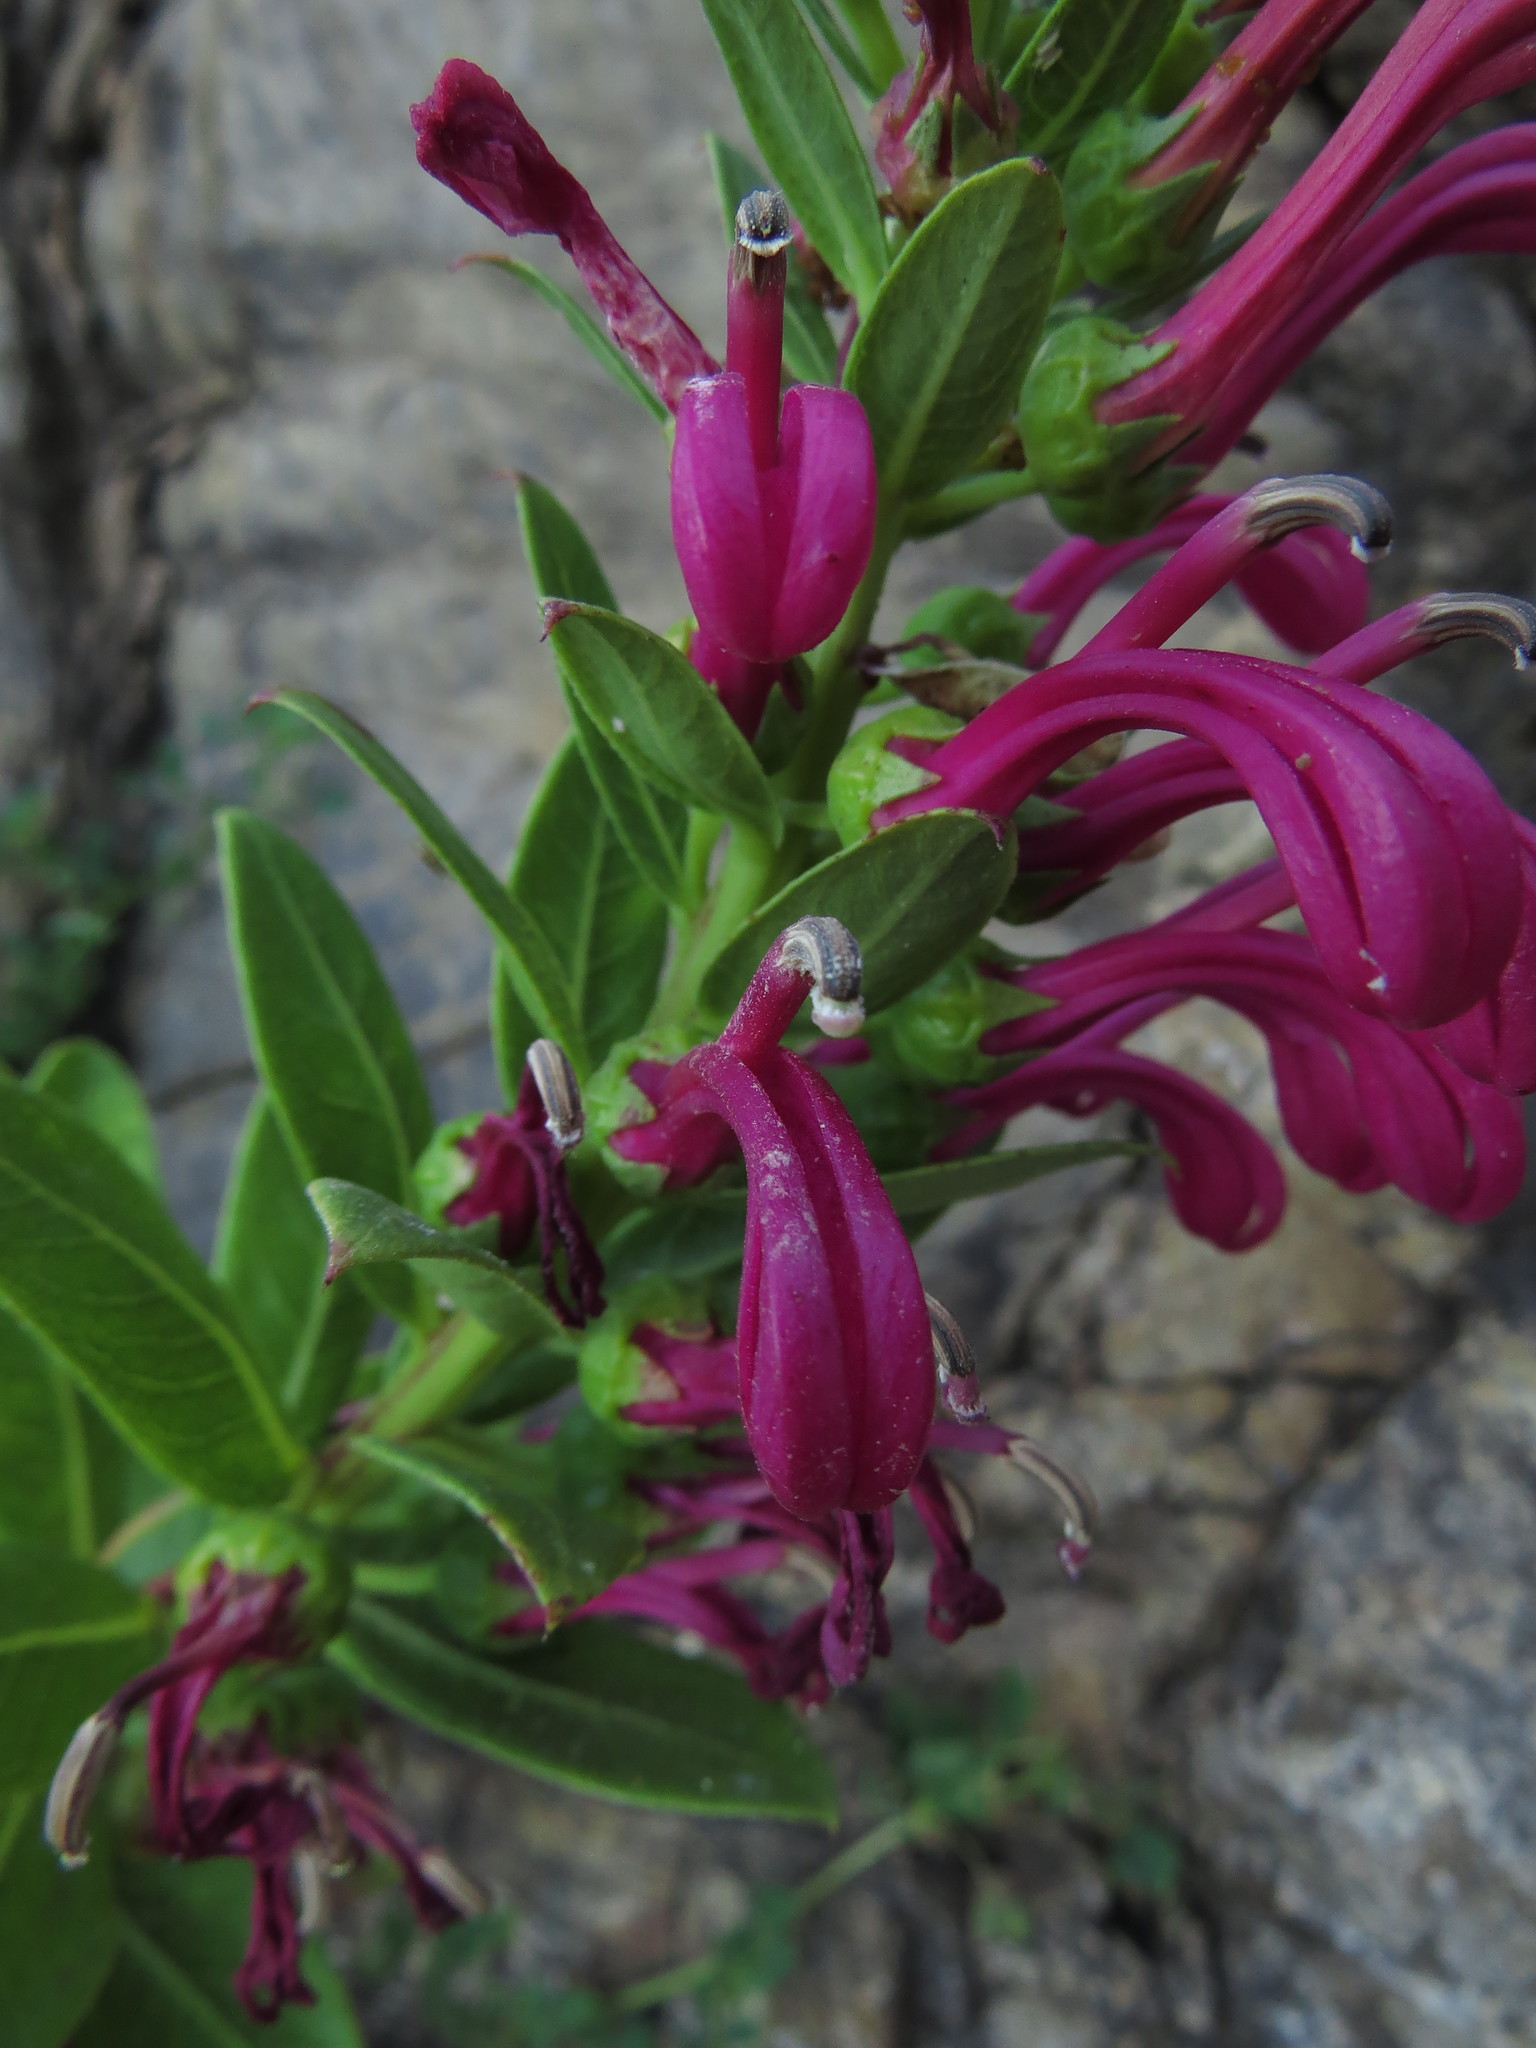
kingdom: Plantae
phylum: Tracheophyta
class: Magnoliopsida
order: Asterales
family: Campanulaceae
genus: Lobelia
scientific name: Lobelia polyphylla
